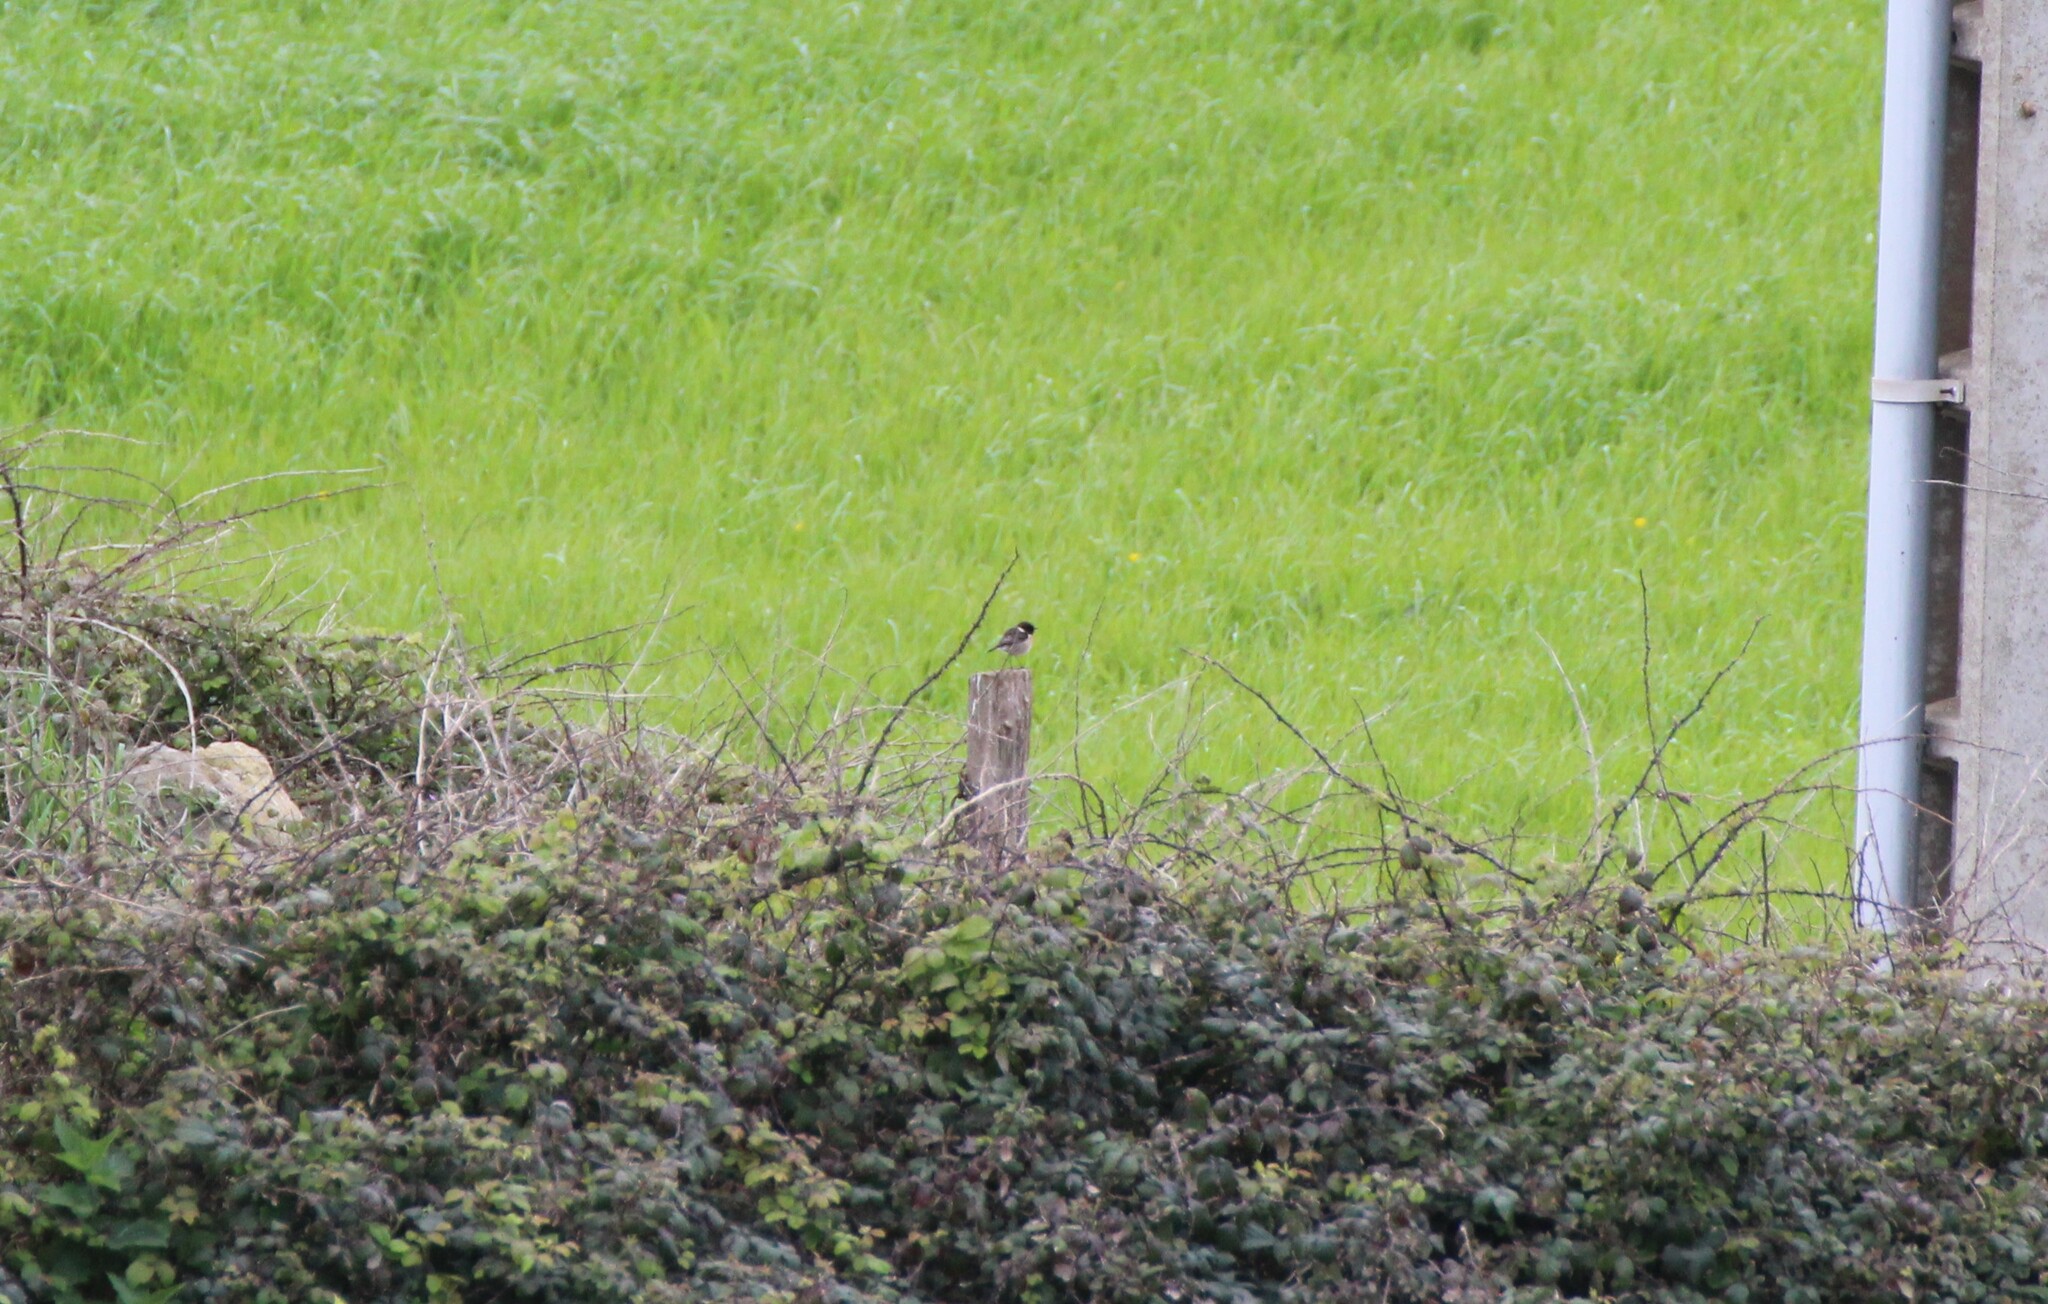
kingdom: Animalia
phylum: Chordata
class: Aves
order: Passeriformes
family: Muscicapidae
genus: Saxicola
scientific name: Saxicola rubicola
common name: European stonechat
